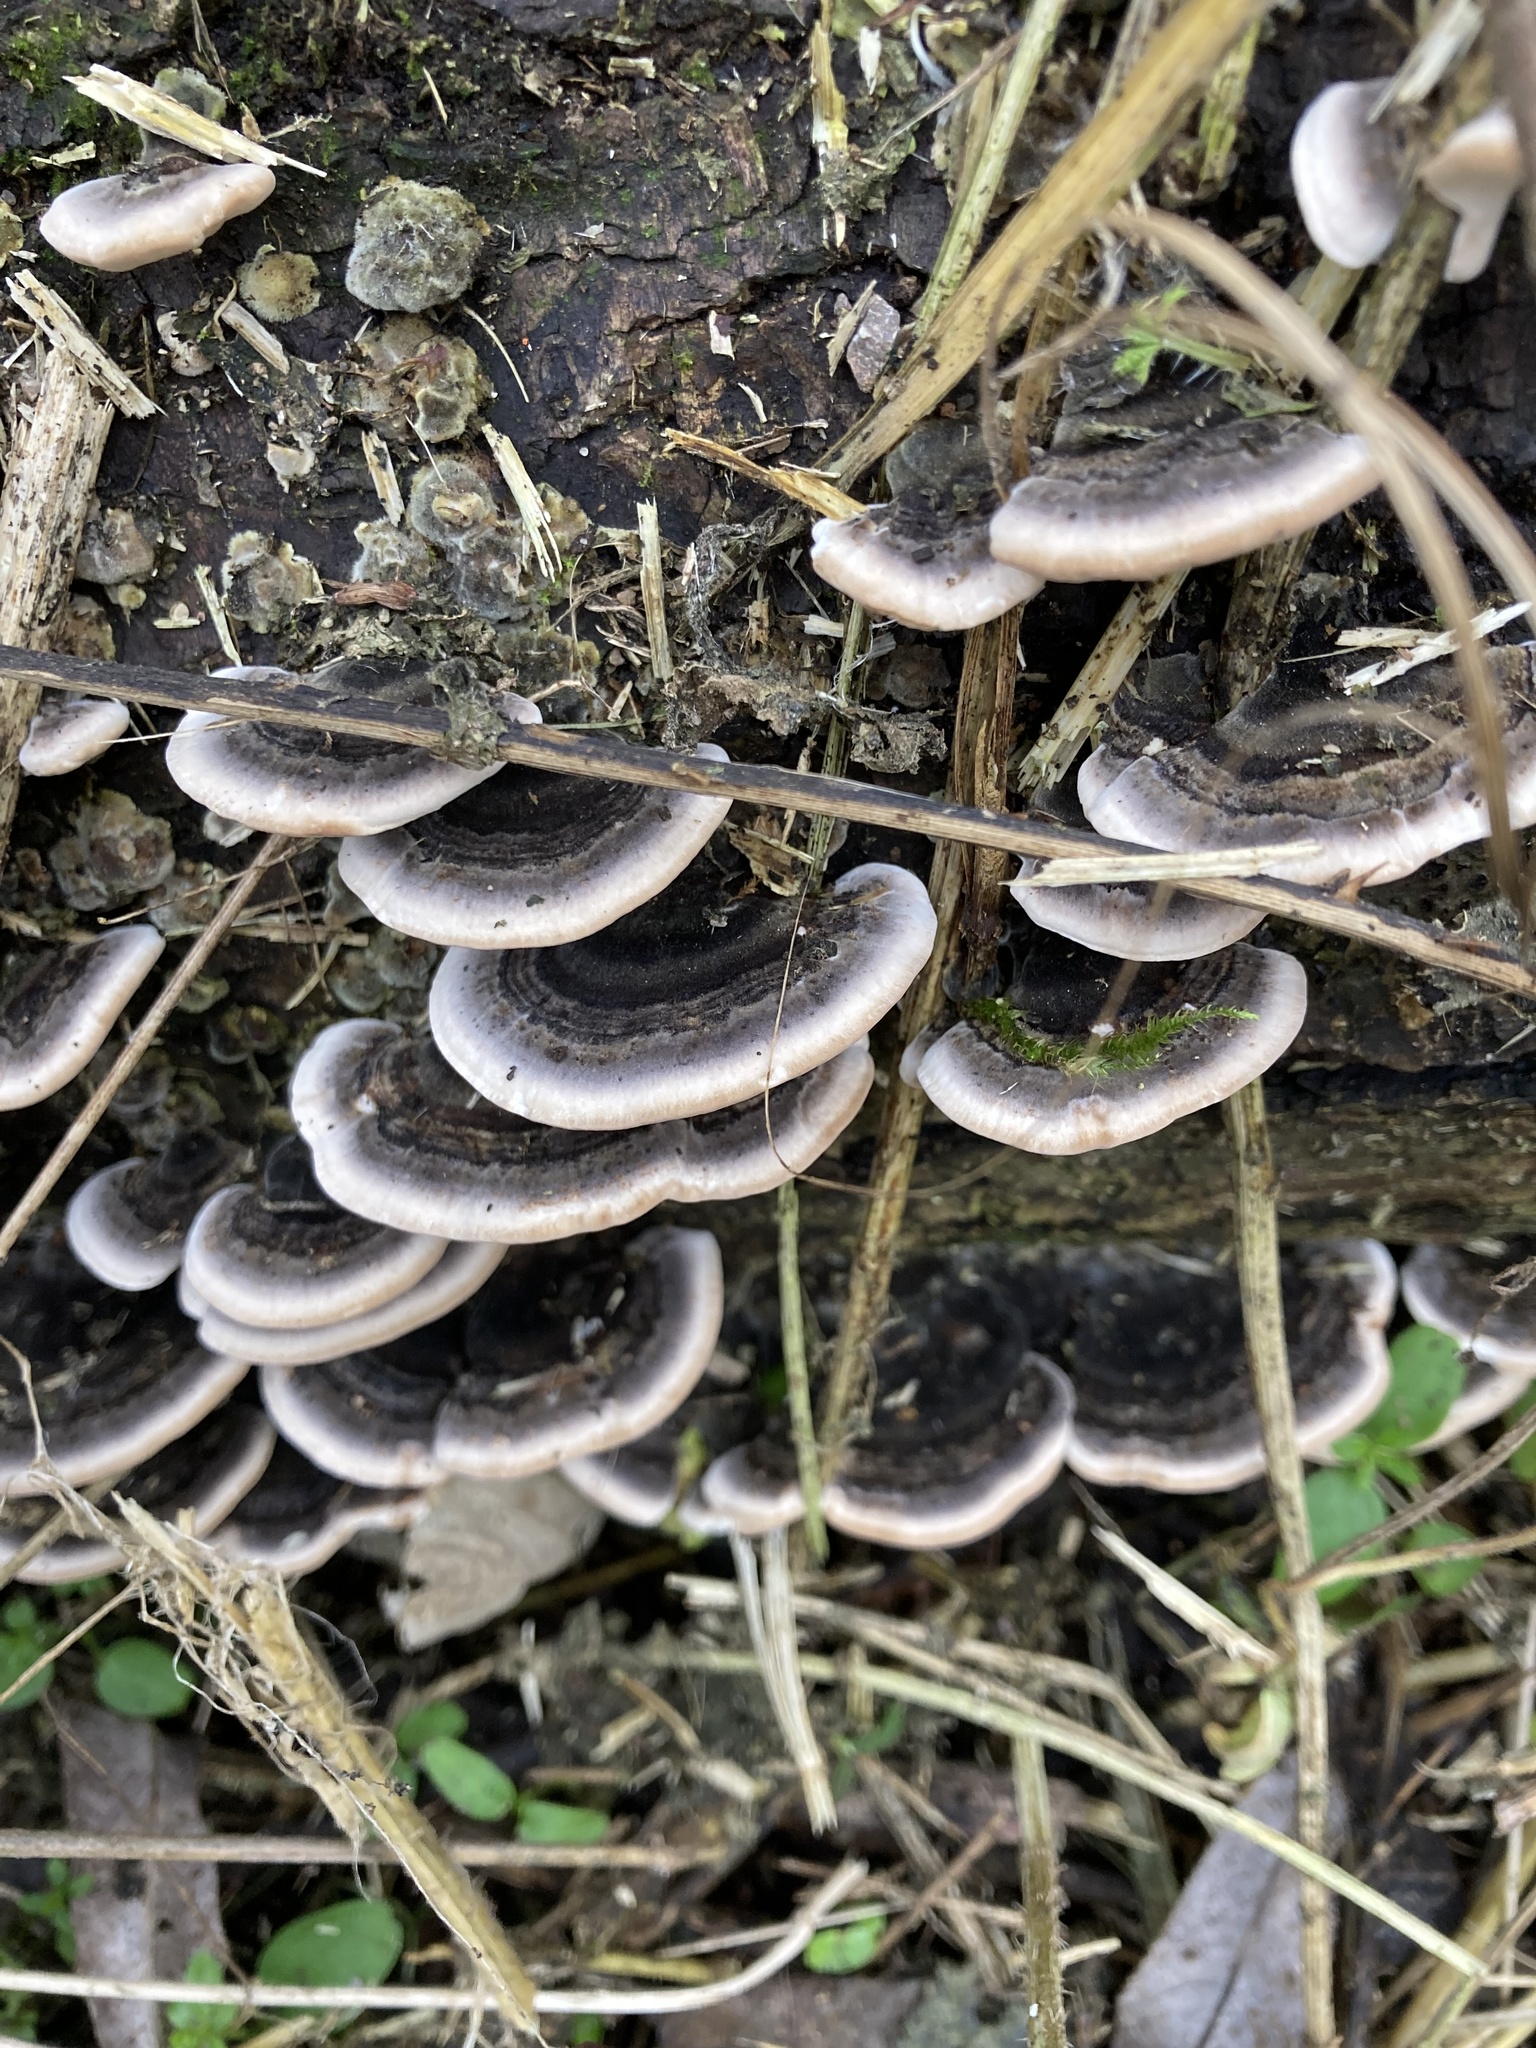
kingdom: Fungi
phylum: Basidiomycota
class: Agaricomycetes
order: Polyporales
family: Polyporaceae
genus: Trametes
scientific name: Trametes versicolor
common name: Turkeytail
